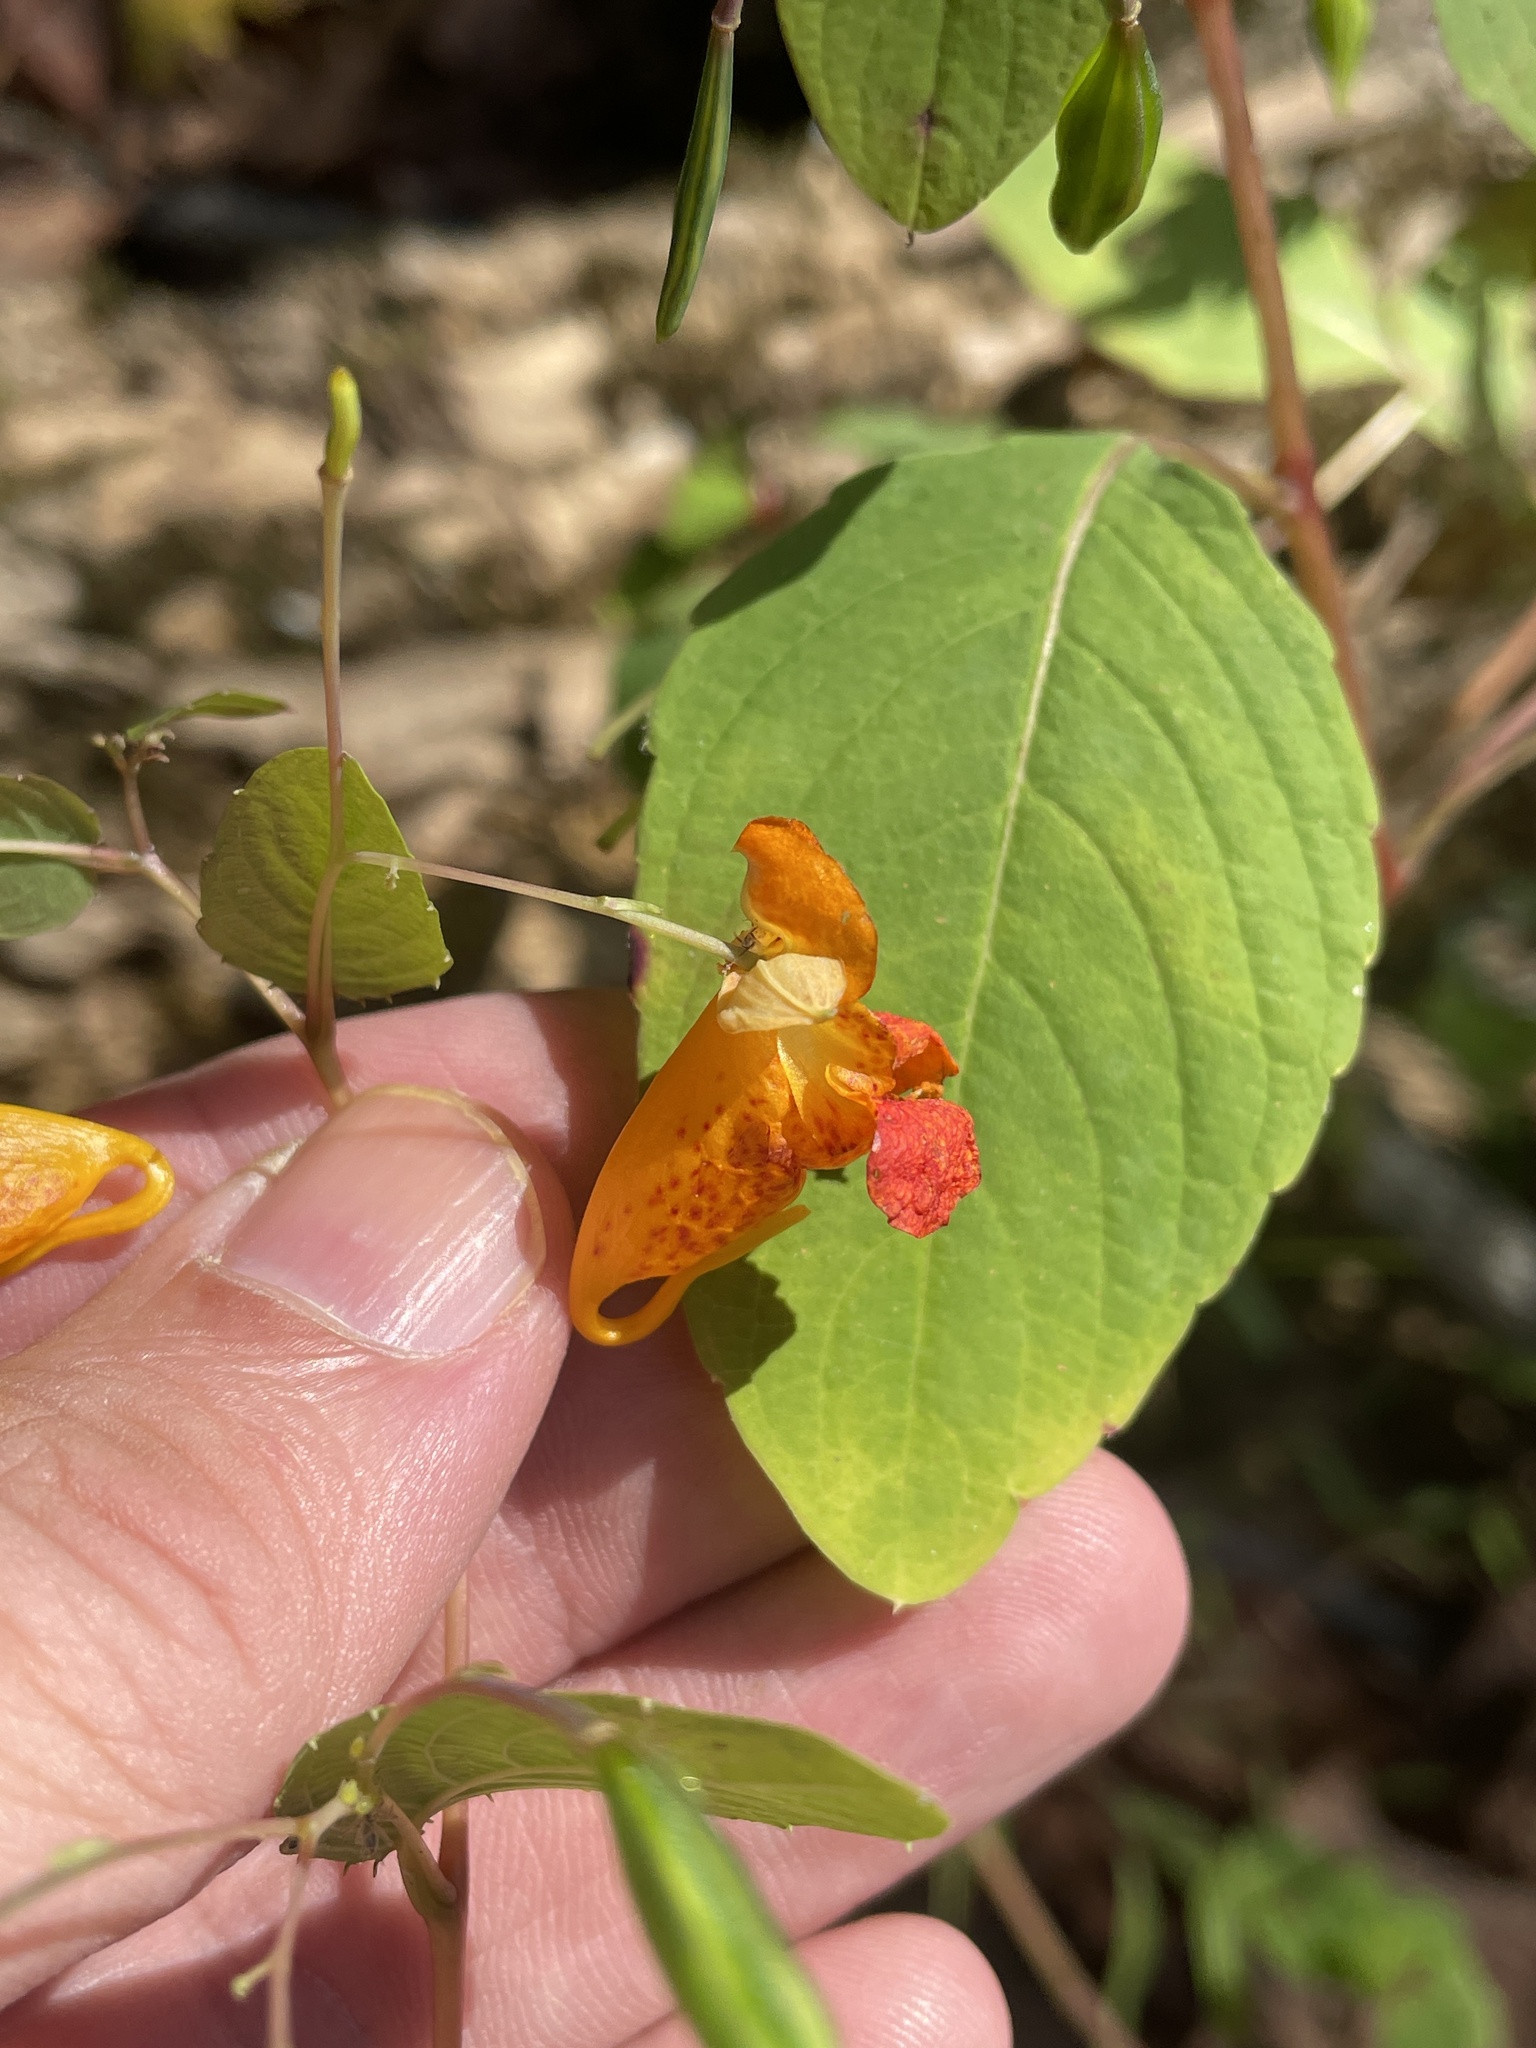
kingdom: Plantae
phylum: Tracheophyta
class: Magnoliopsida
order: Ericales
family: Balsaminaceae
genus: Impatiens
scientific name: Impatiens capensis
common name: Orange balsam
